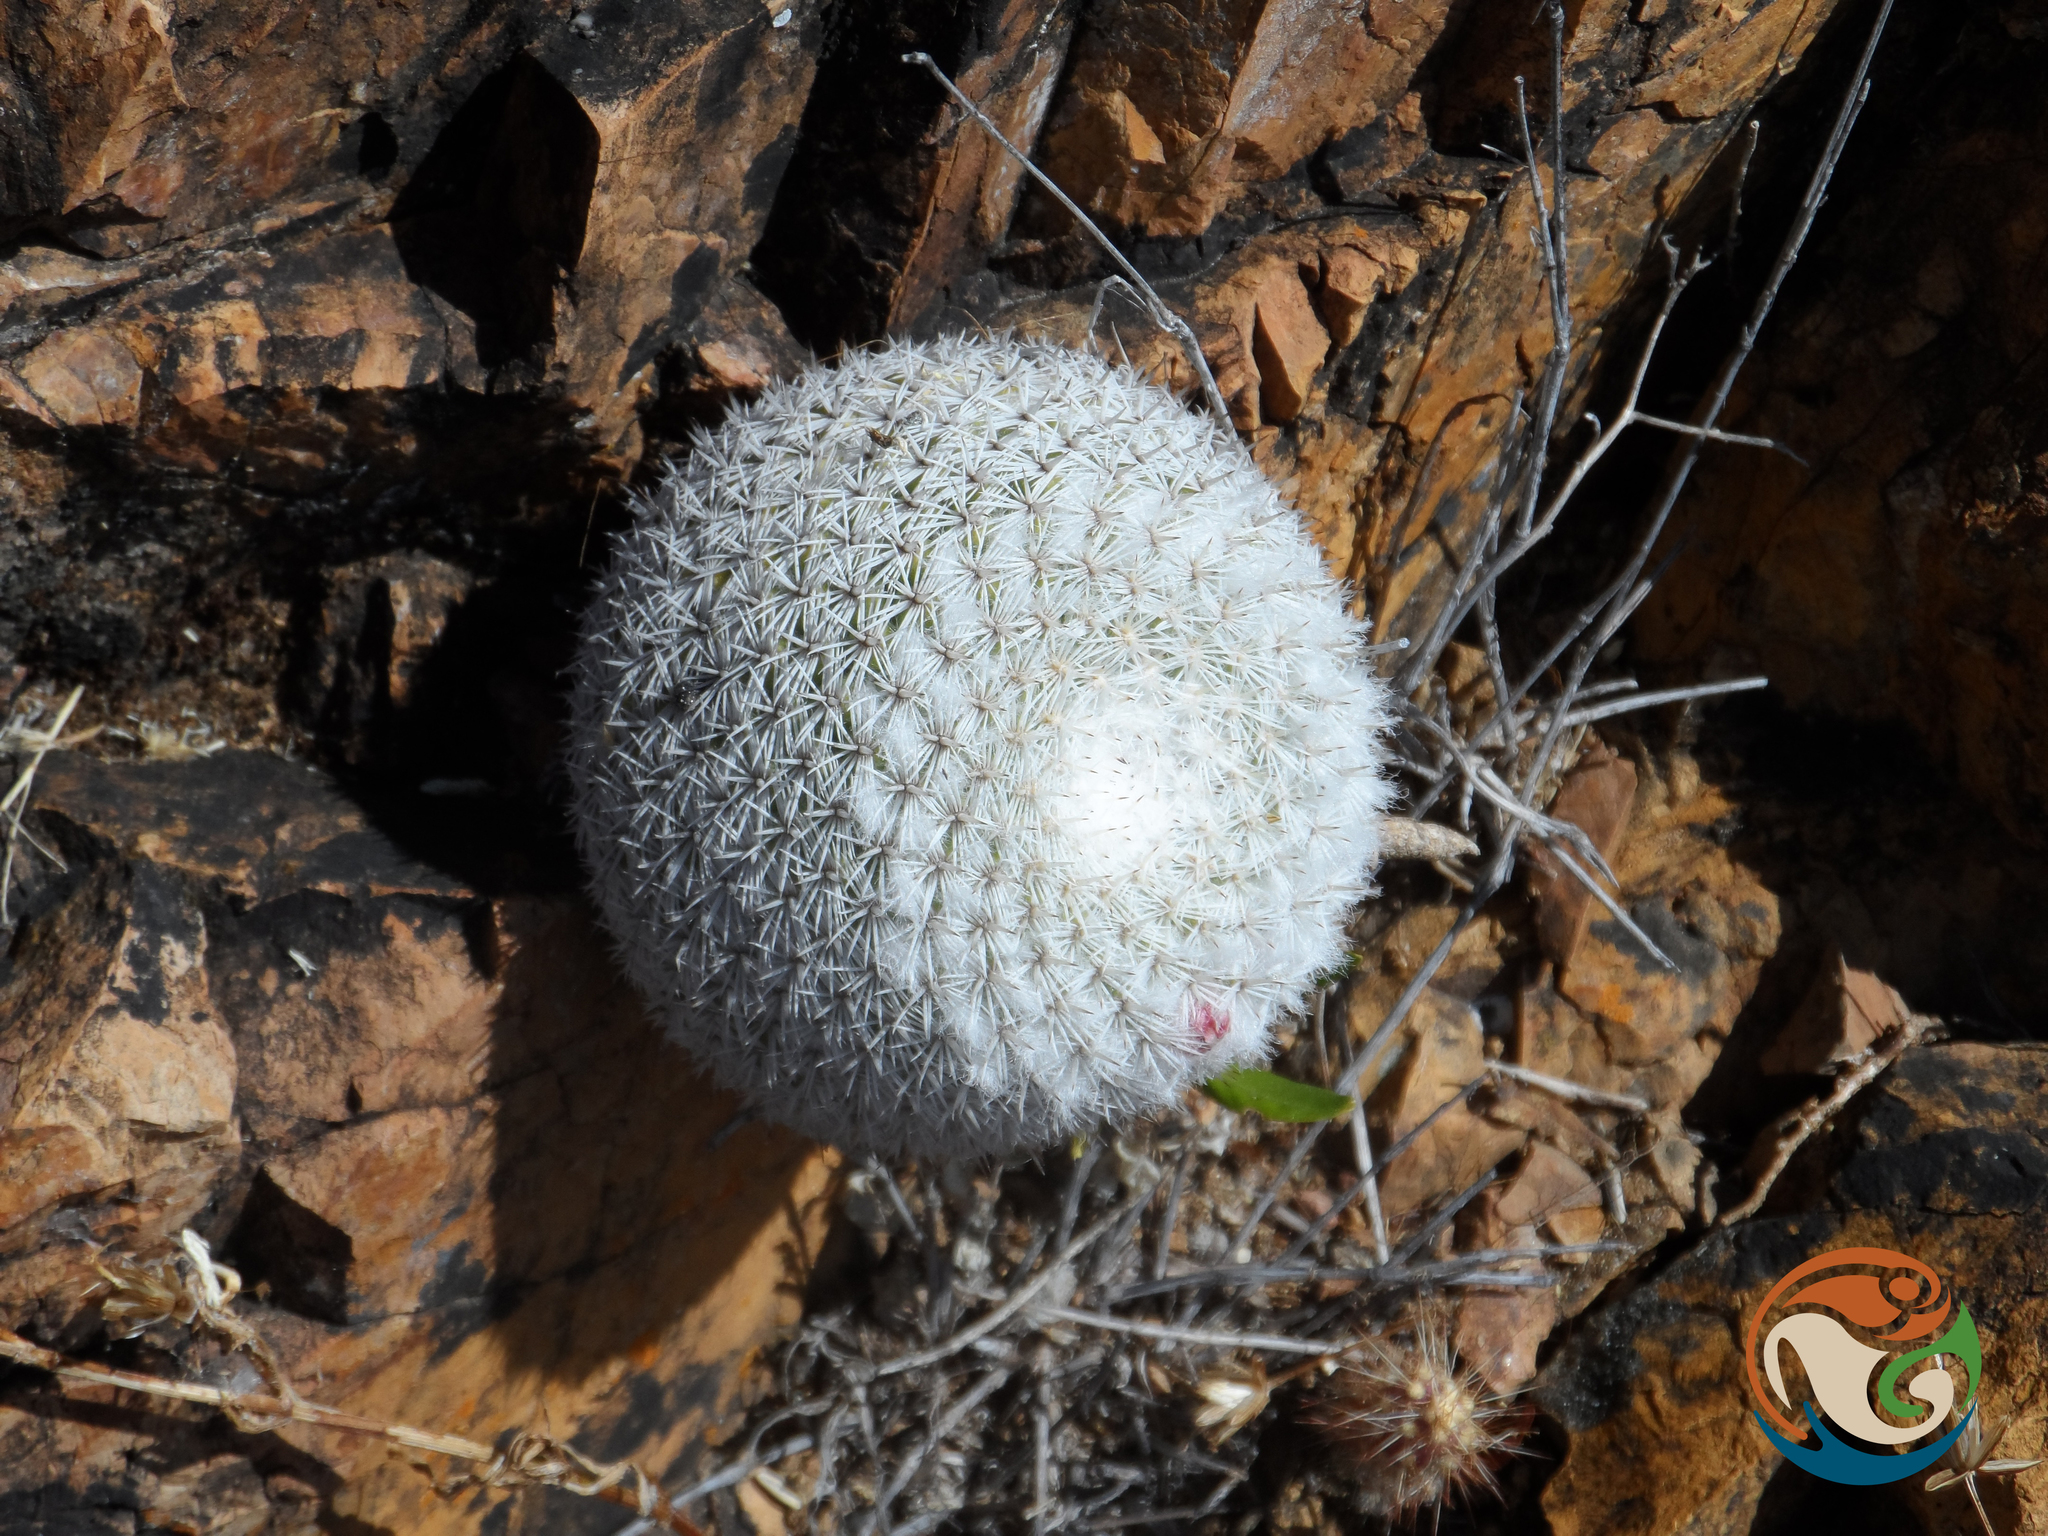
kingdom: Plantae
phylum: Tracheophyta
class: Magnoliopsida
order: Caryophyllales
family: Cactaceae
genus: Mammillaria
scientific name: Mammillaria albilanata
